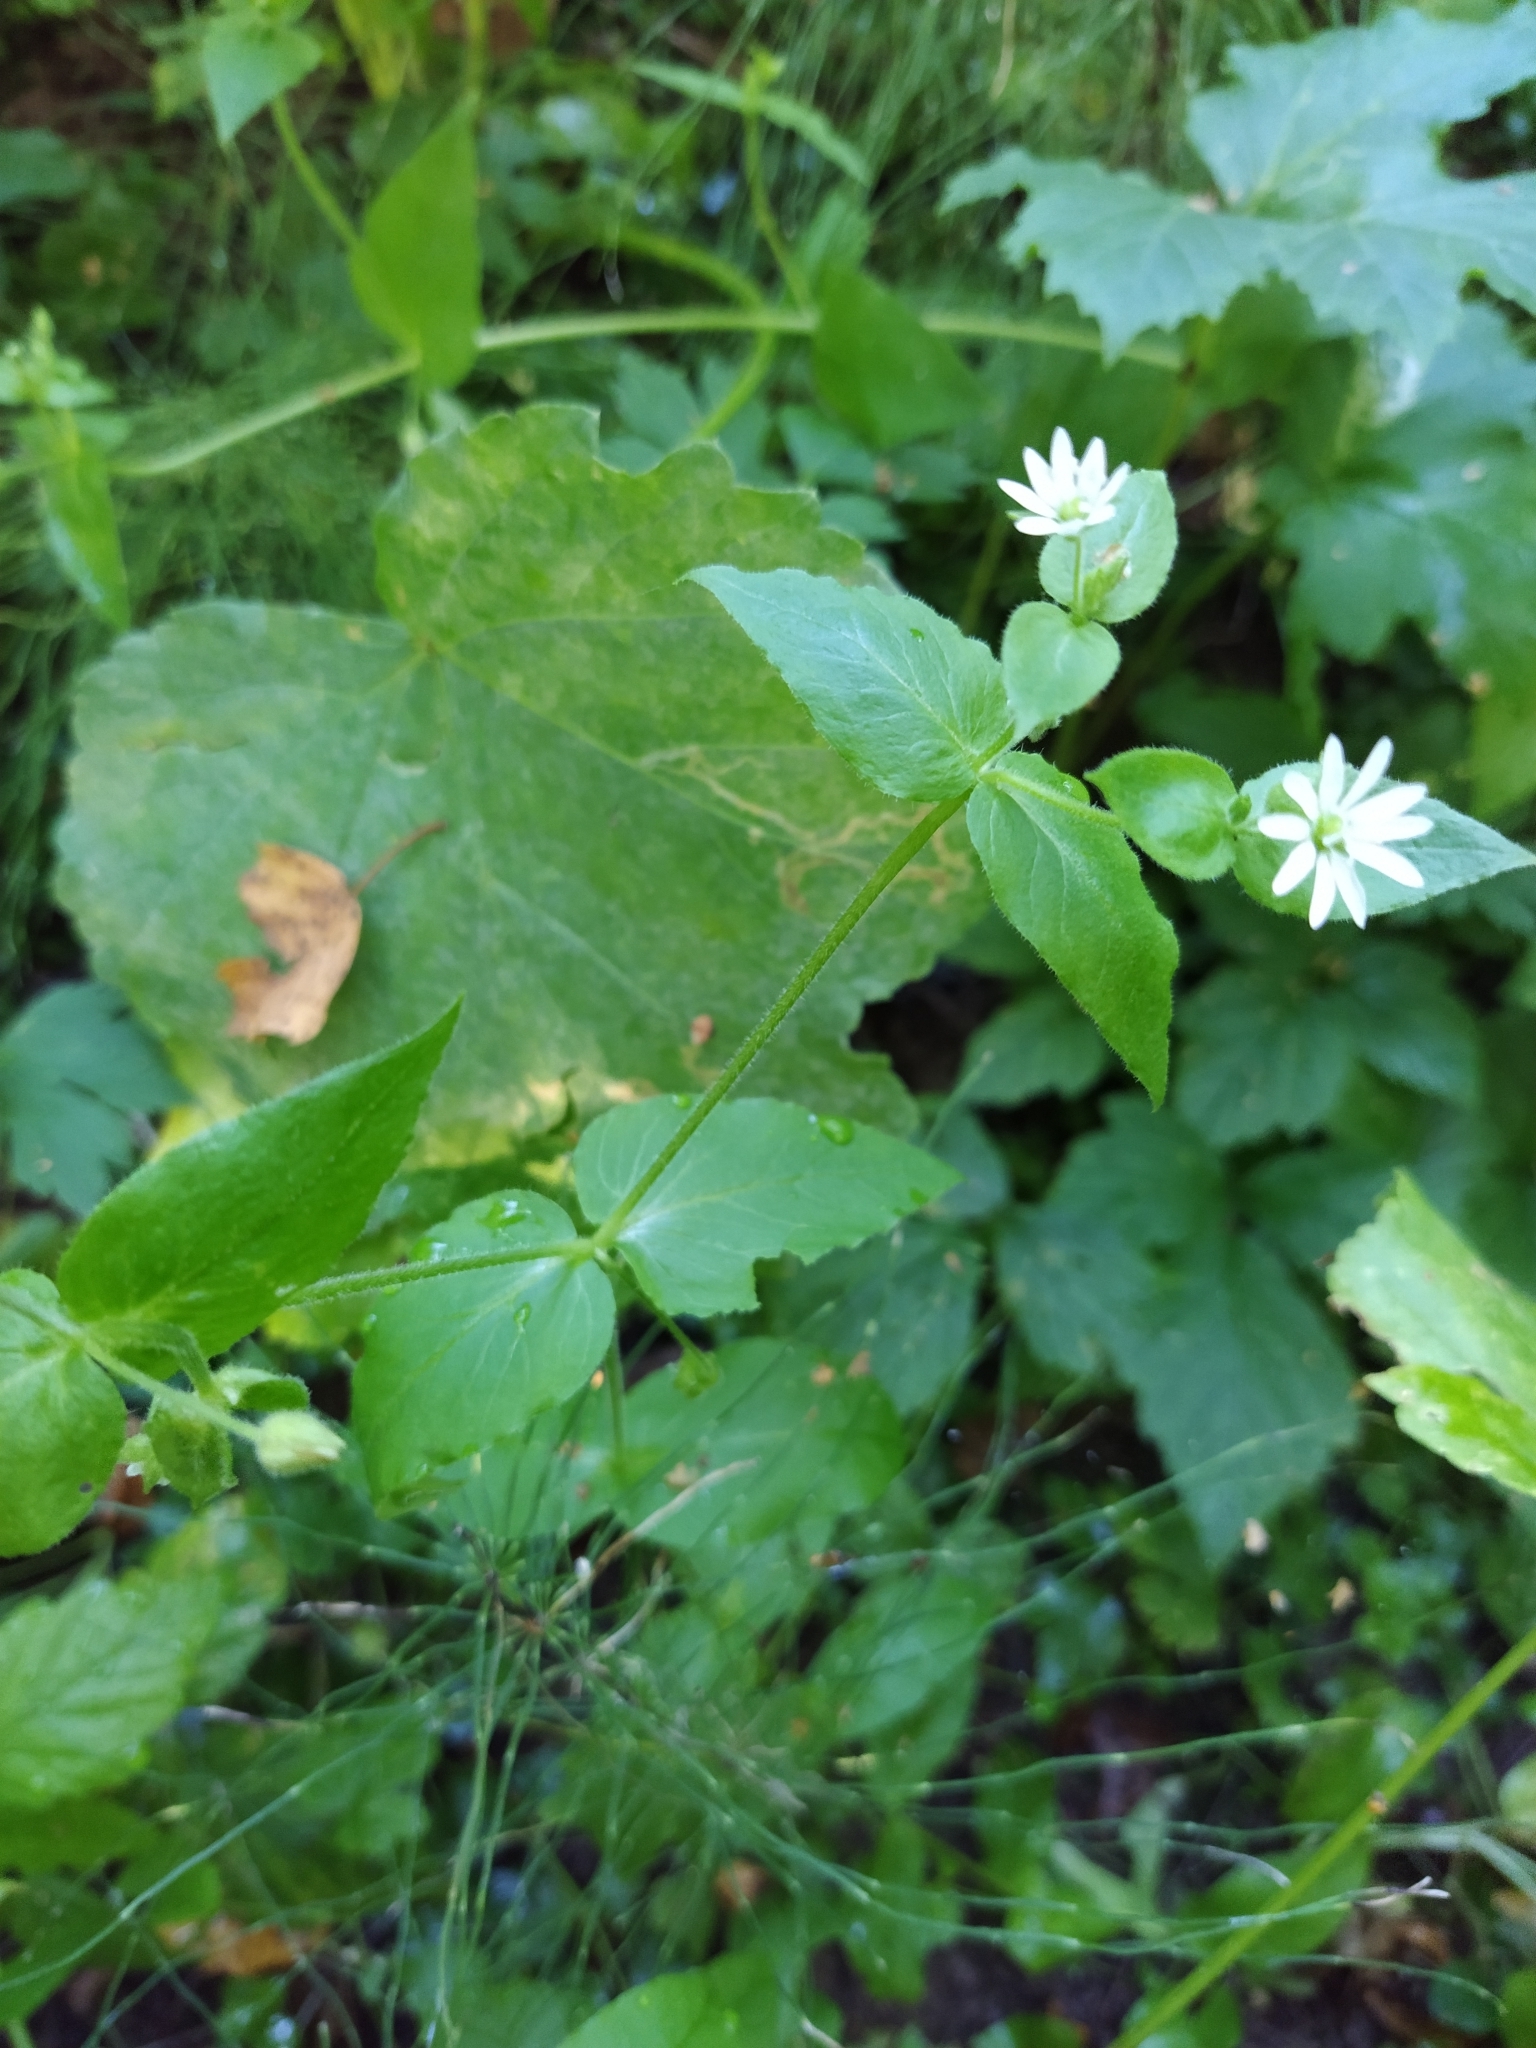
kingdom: Plantae
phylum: Tracheophyta
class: Magnoliopsida
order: Caryophyllales
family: Caryophyllaceae
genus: Stellaria
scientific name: Stellaria aquatica
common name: Water chickweed
